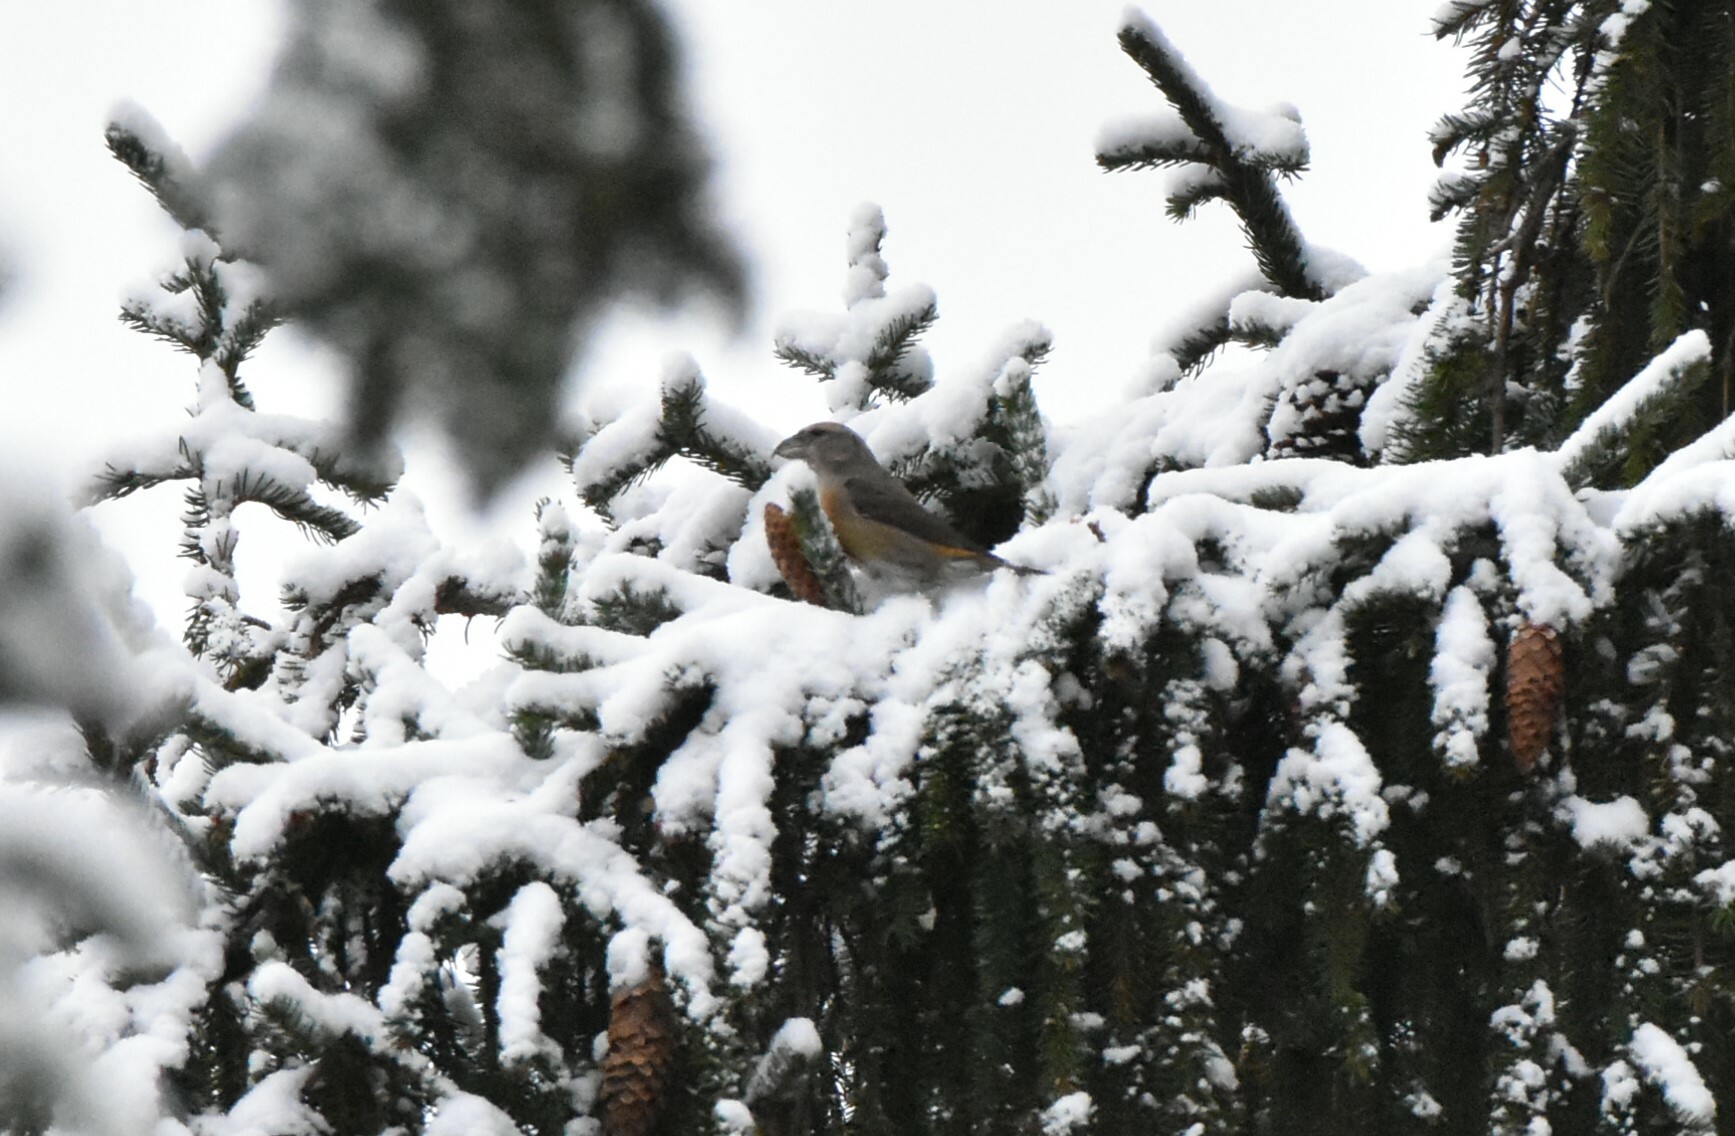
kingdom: Animalia
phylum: Chordata
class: Aves
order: Passeriformes
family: Fringillidae
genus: Loxia
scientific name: Loxia curvirostra
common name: Red crossbill
